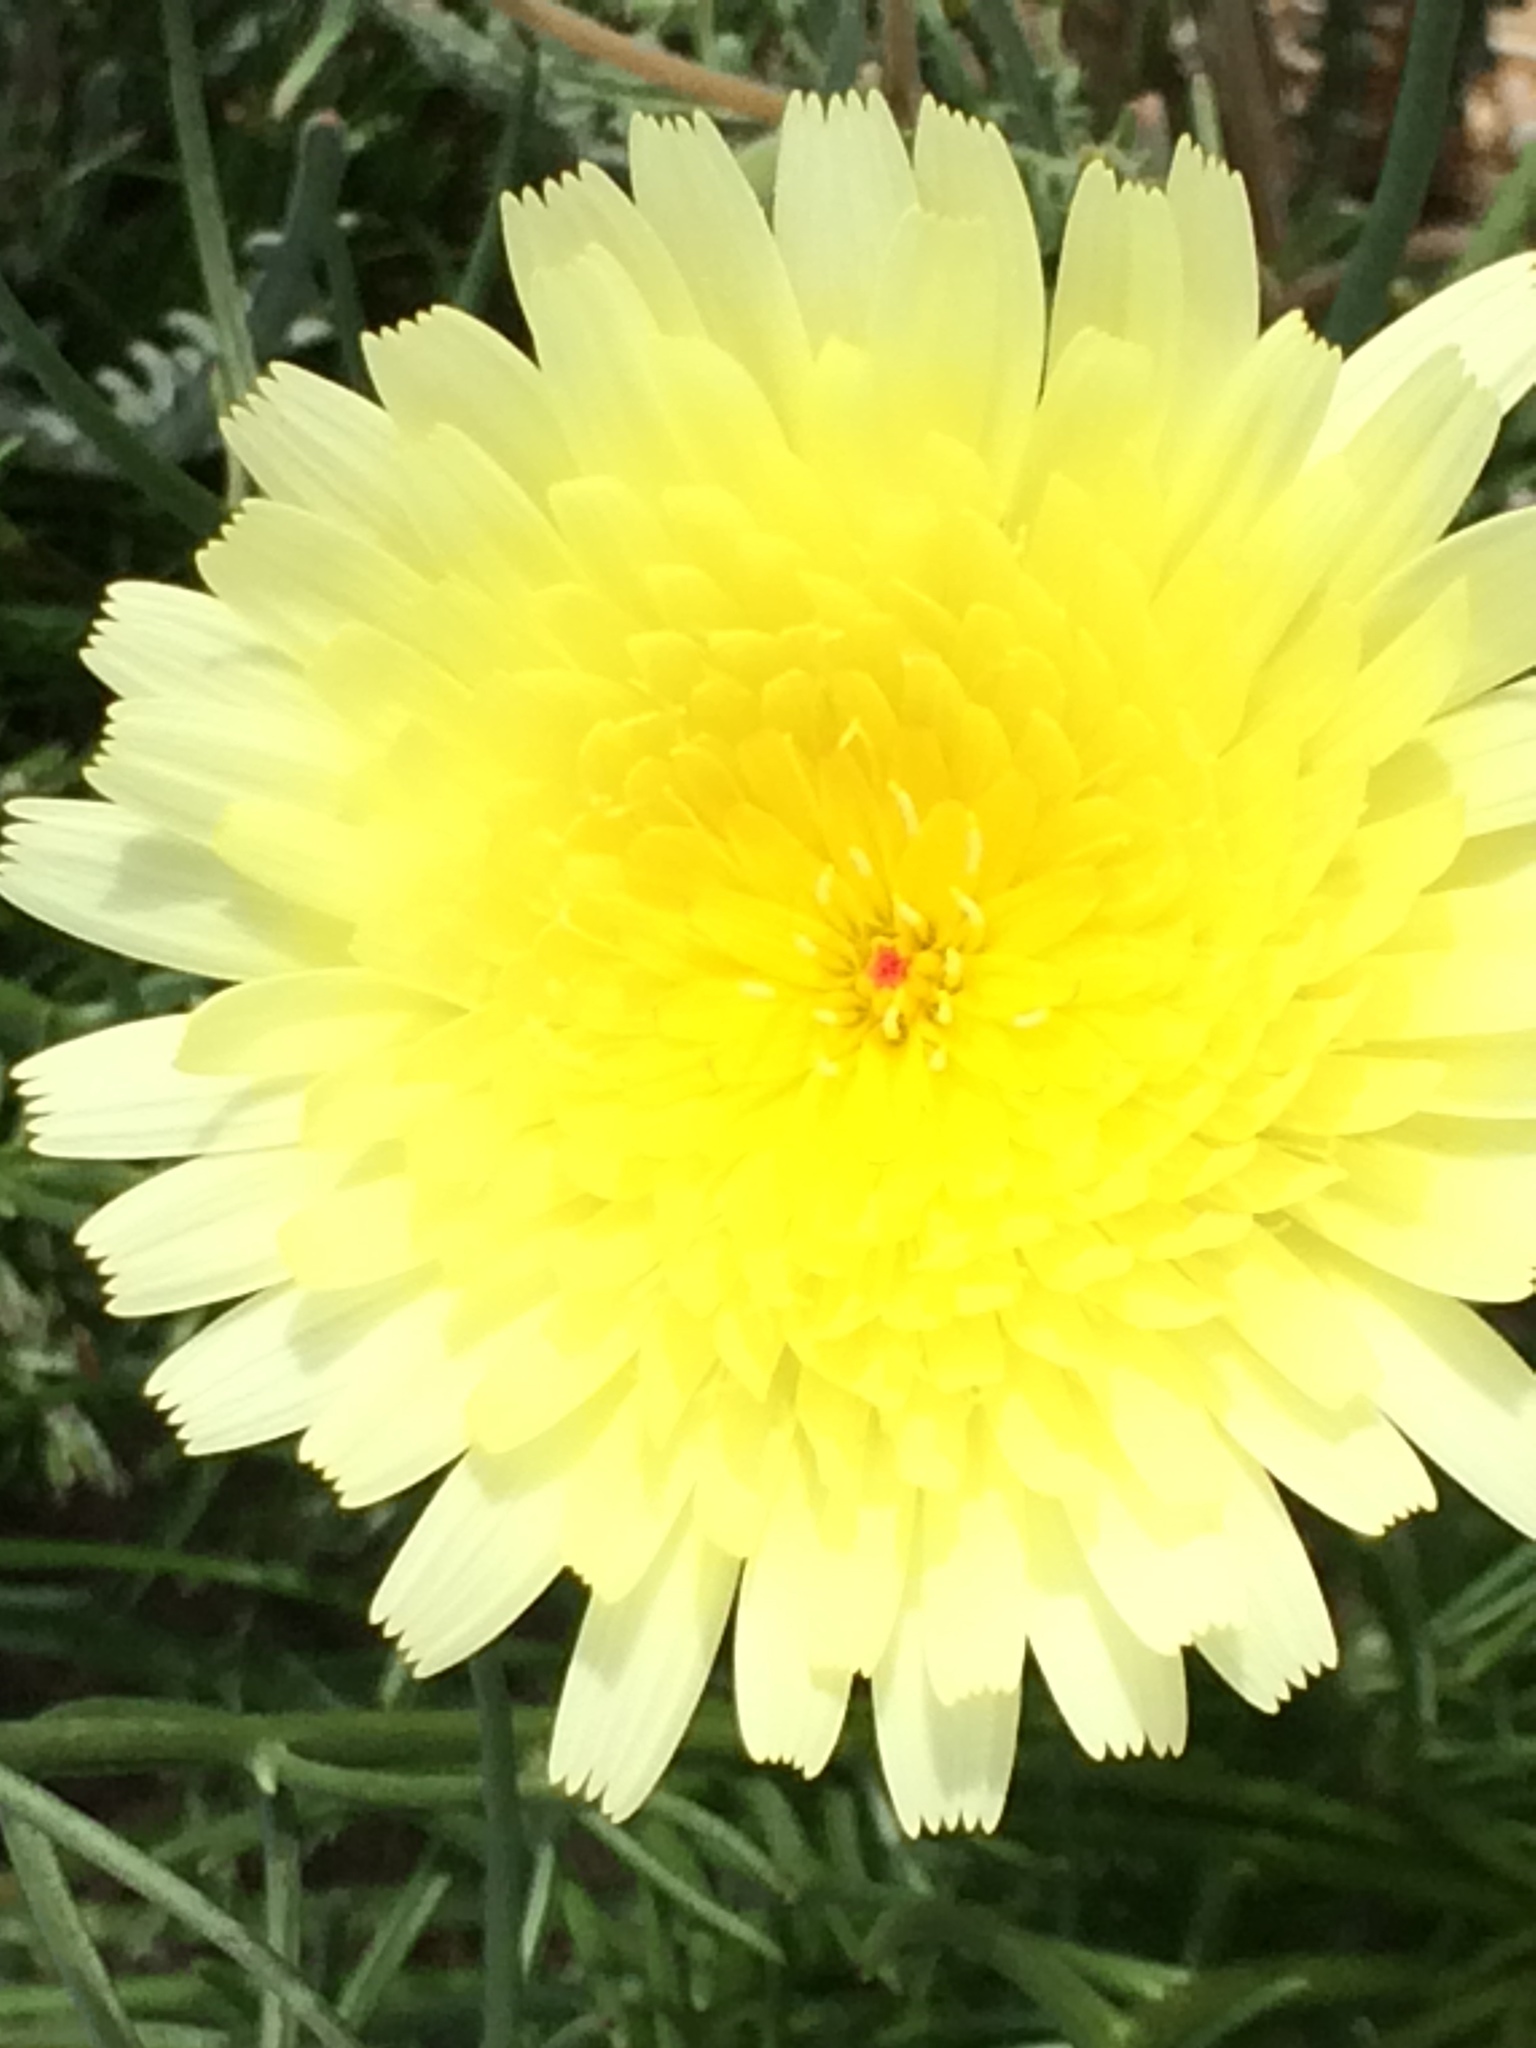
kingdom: Plantae
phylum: Tracheophyta
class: Magnoliopsida
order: Asterales
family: Asteraceae
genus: Malacothrix
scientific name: Malacothrix glabrata
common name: Smooth desert-dandelion
